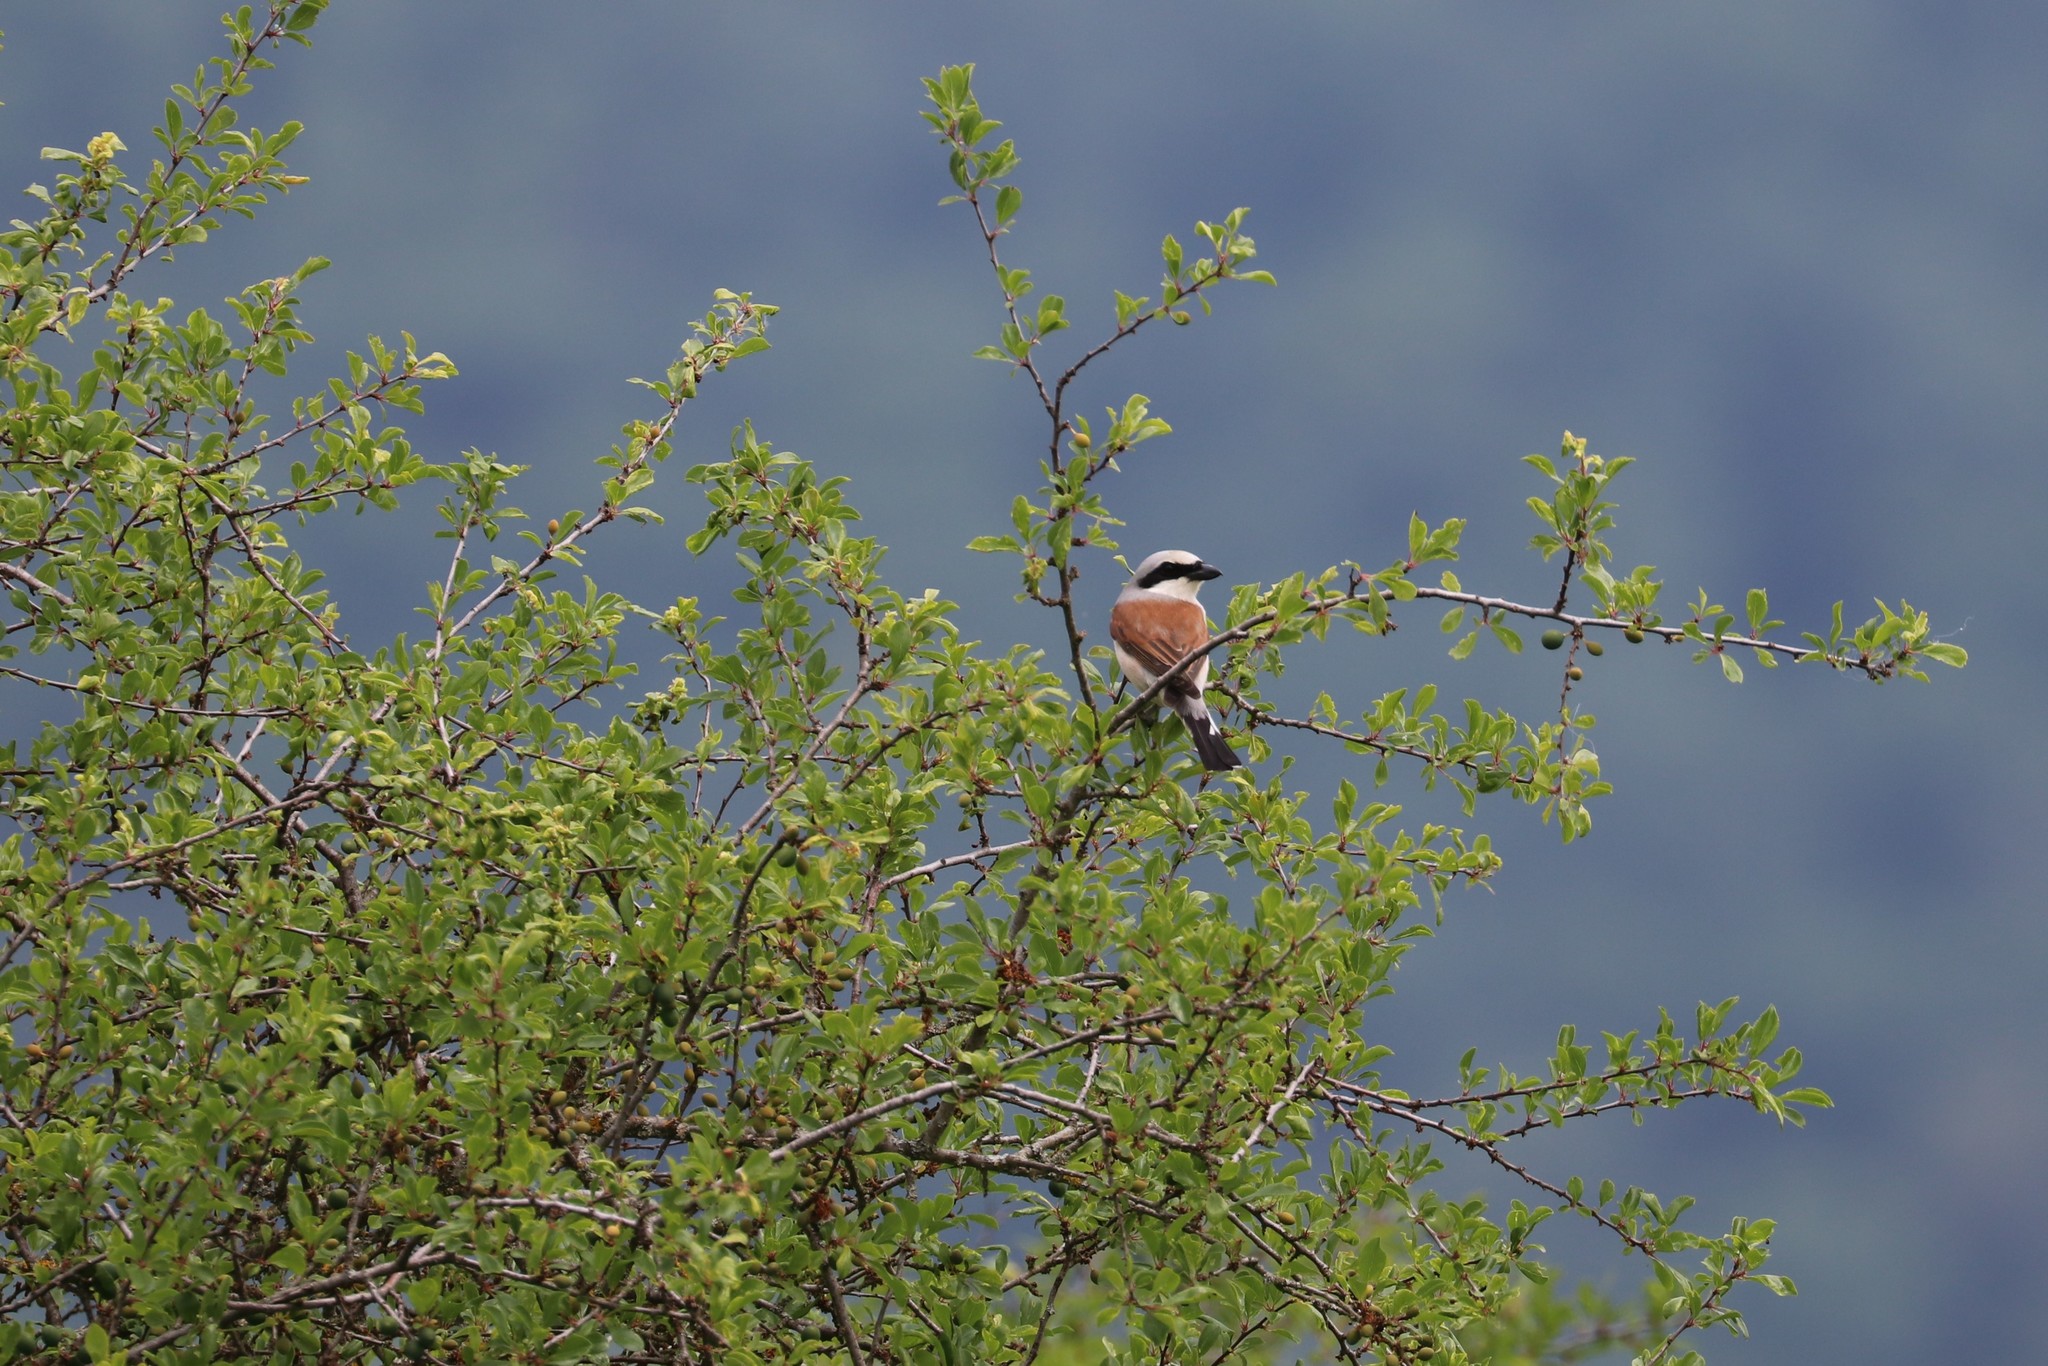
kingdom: Animalia
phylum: Chordata
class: Aves
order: Passeriformes
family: Laniidae
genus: Lanius
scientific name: Lanius collurio
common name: Red-backed shrike
